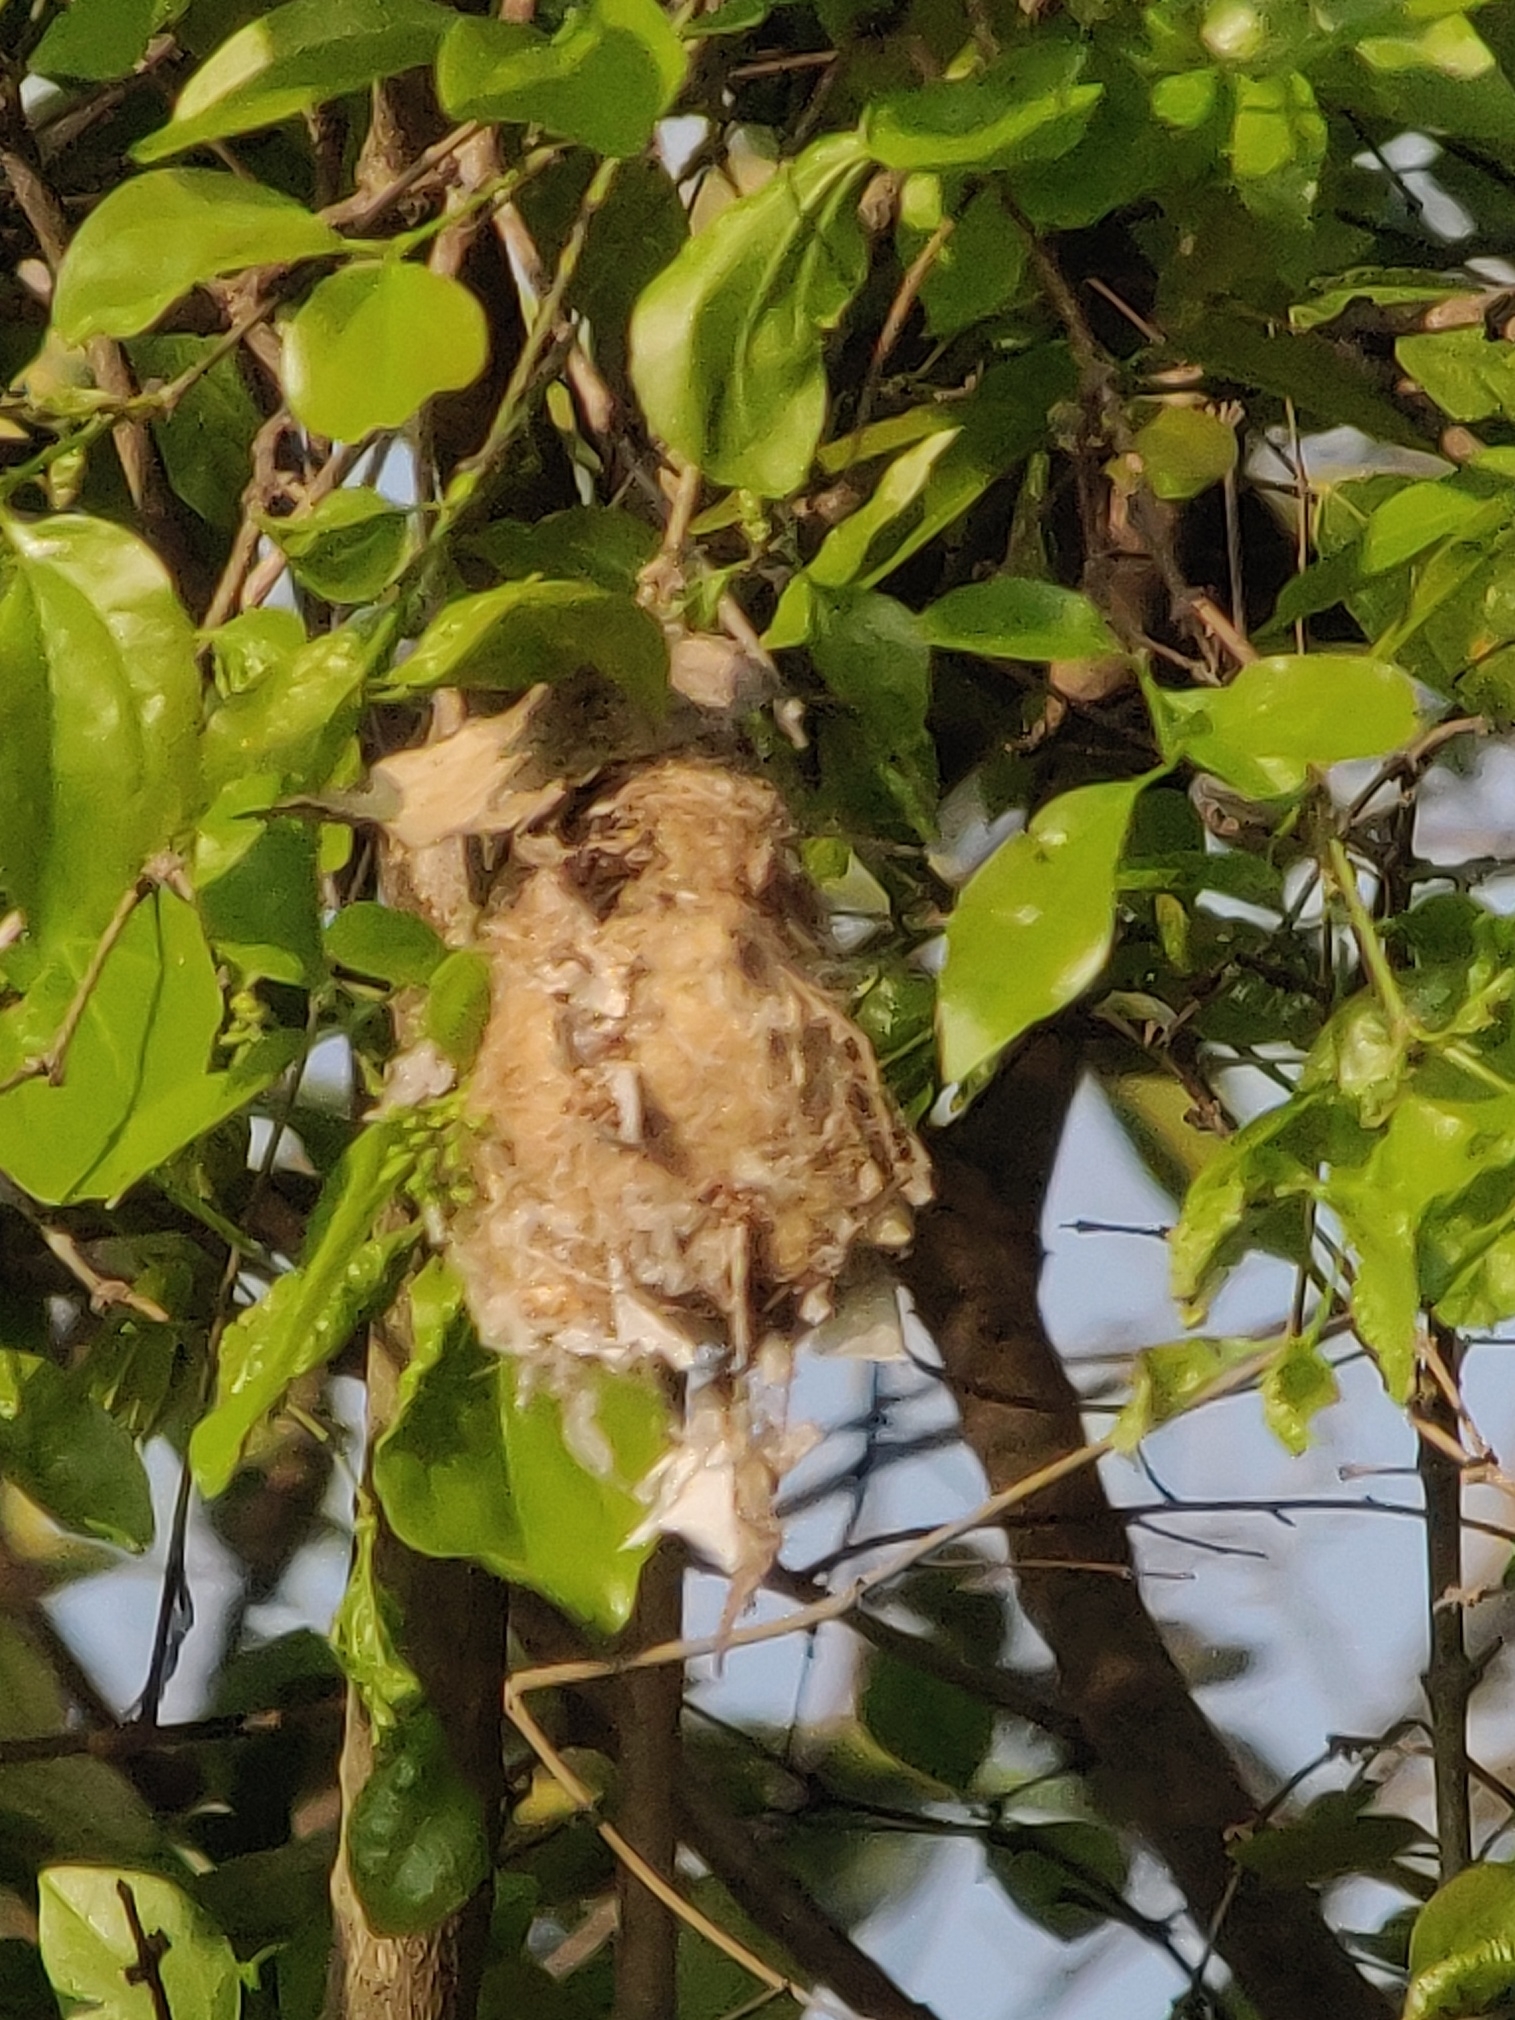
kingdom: Animalia
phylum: Chordata
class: Aves
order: Passeriformes
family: Nectariniidae
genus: Leptocoma
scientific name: Leptocoma zeylonica
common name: Purple-rumped sunbird
